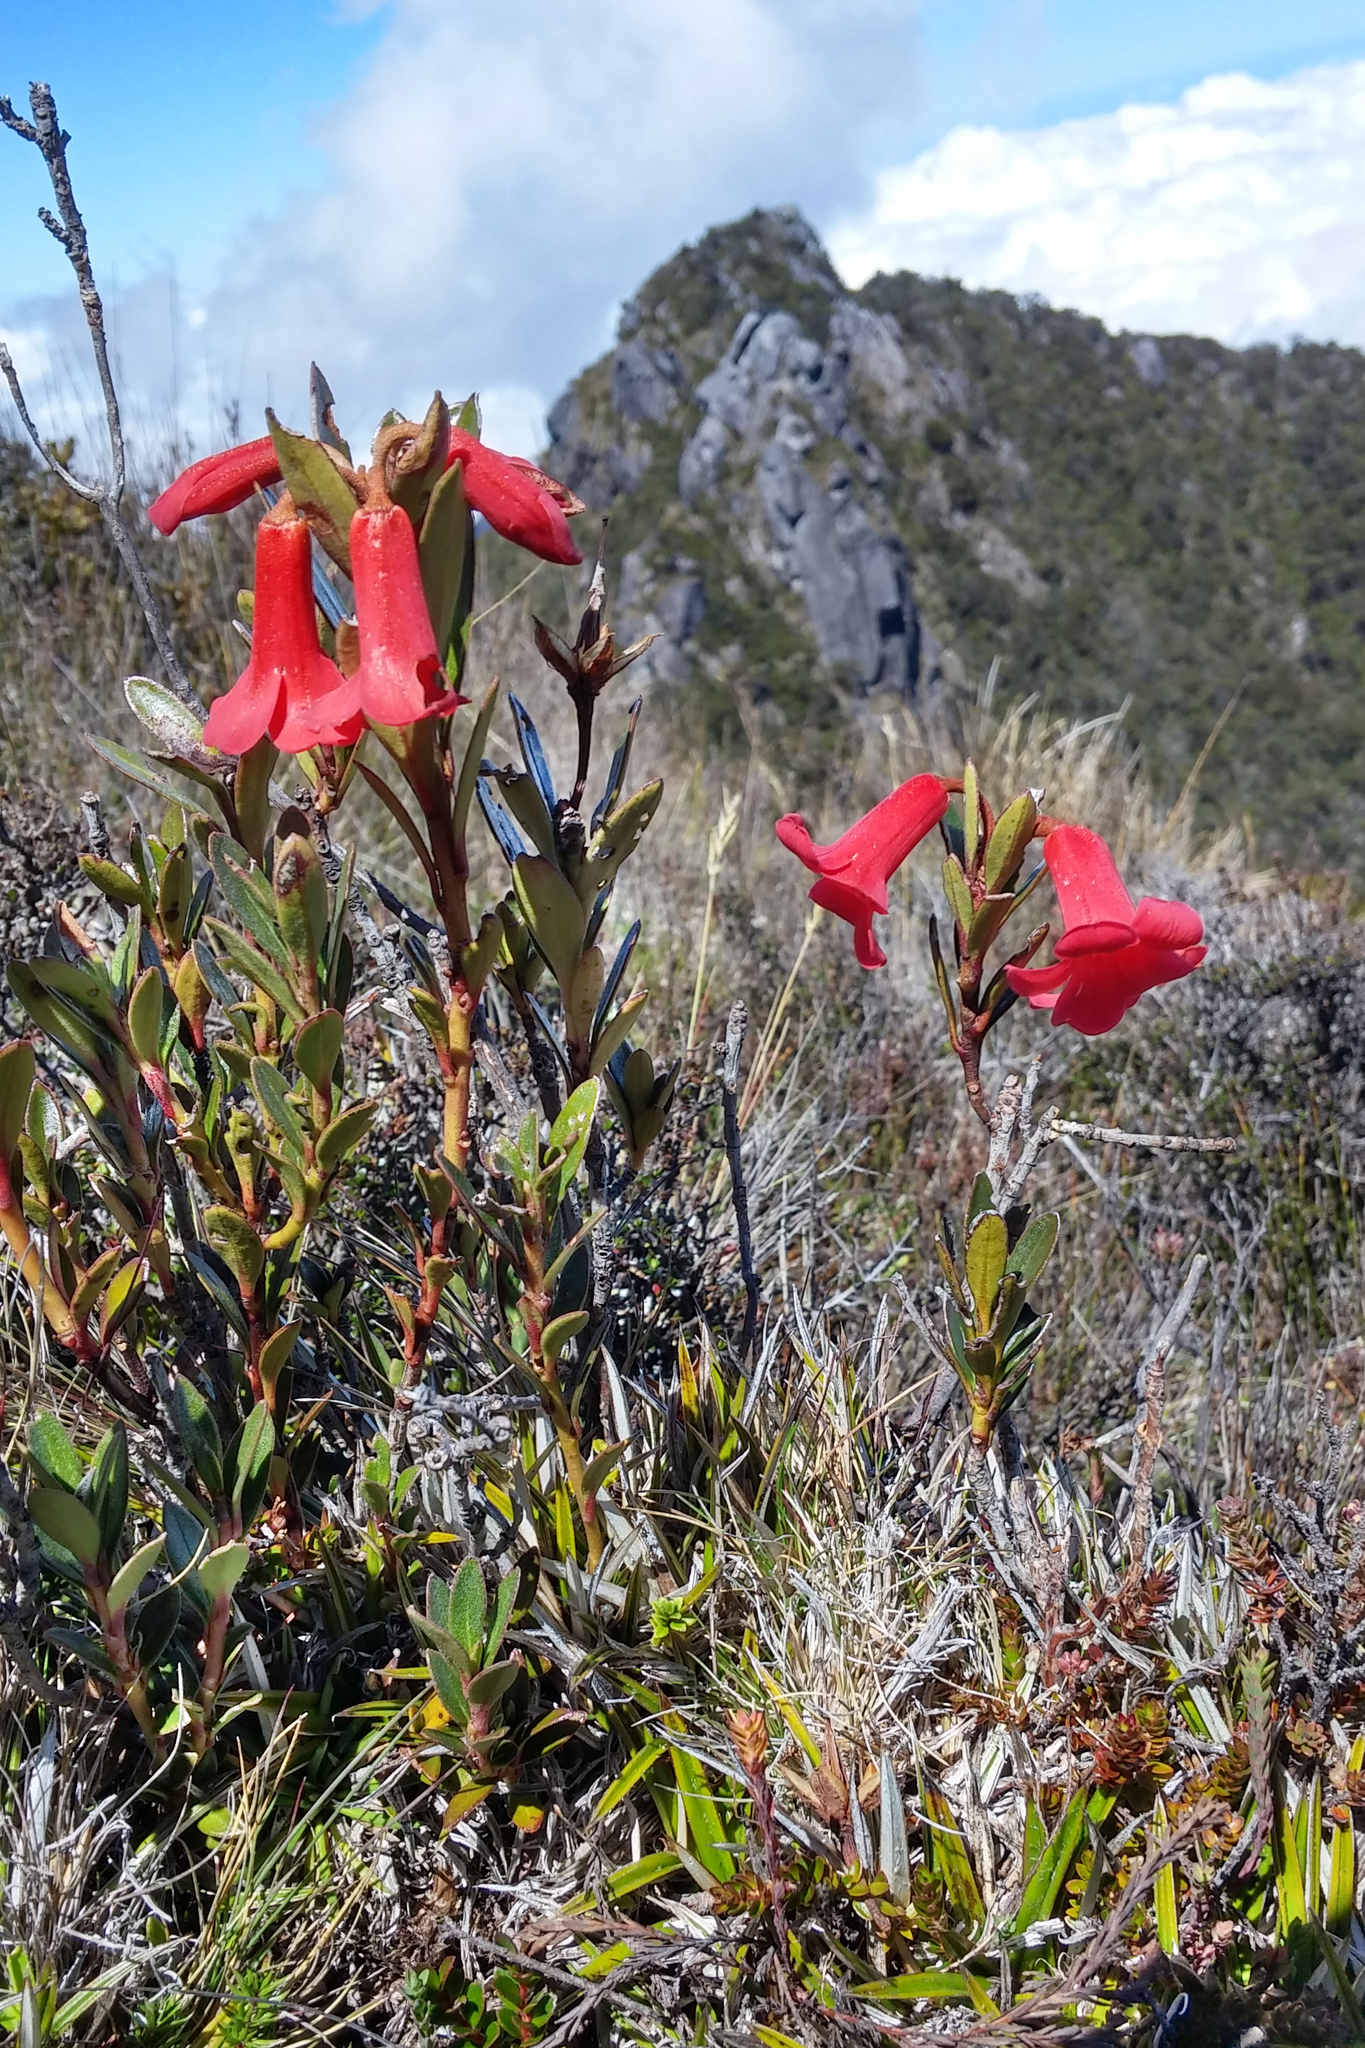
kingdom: Plantae
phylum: Tracheophyta
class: Magnoliopsida
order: Ericales
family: Ericaceae
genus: Rhododendron
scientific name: Rhododendron beyerinckianum
